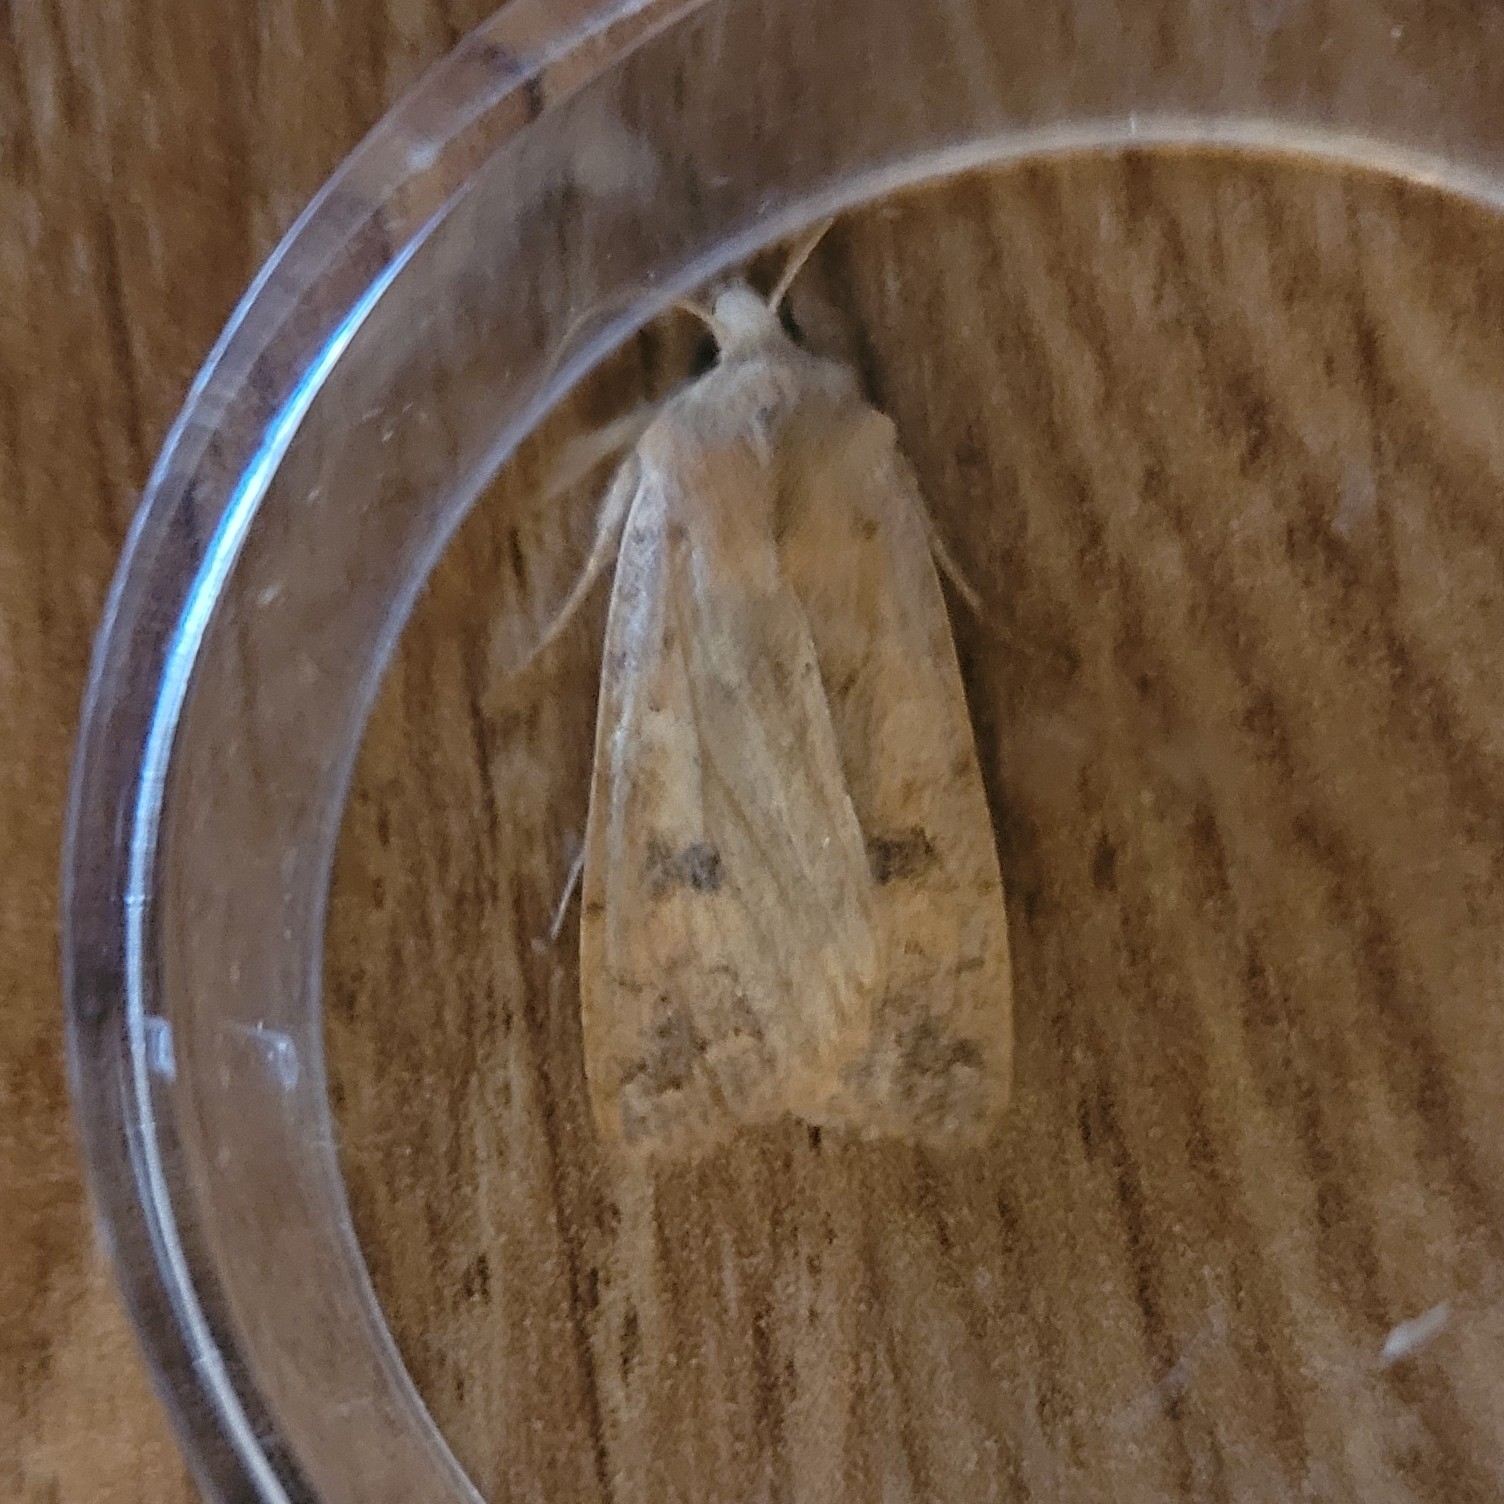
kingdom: Animalia
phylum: Arthropoda
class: Insecta
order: Lepidoptera
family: Noctuidae
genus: Sunira
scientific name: Sunira circellaris
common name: Brick
